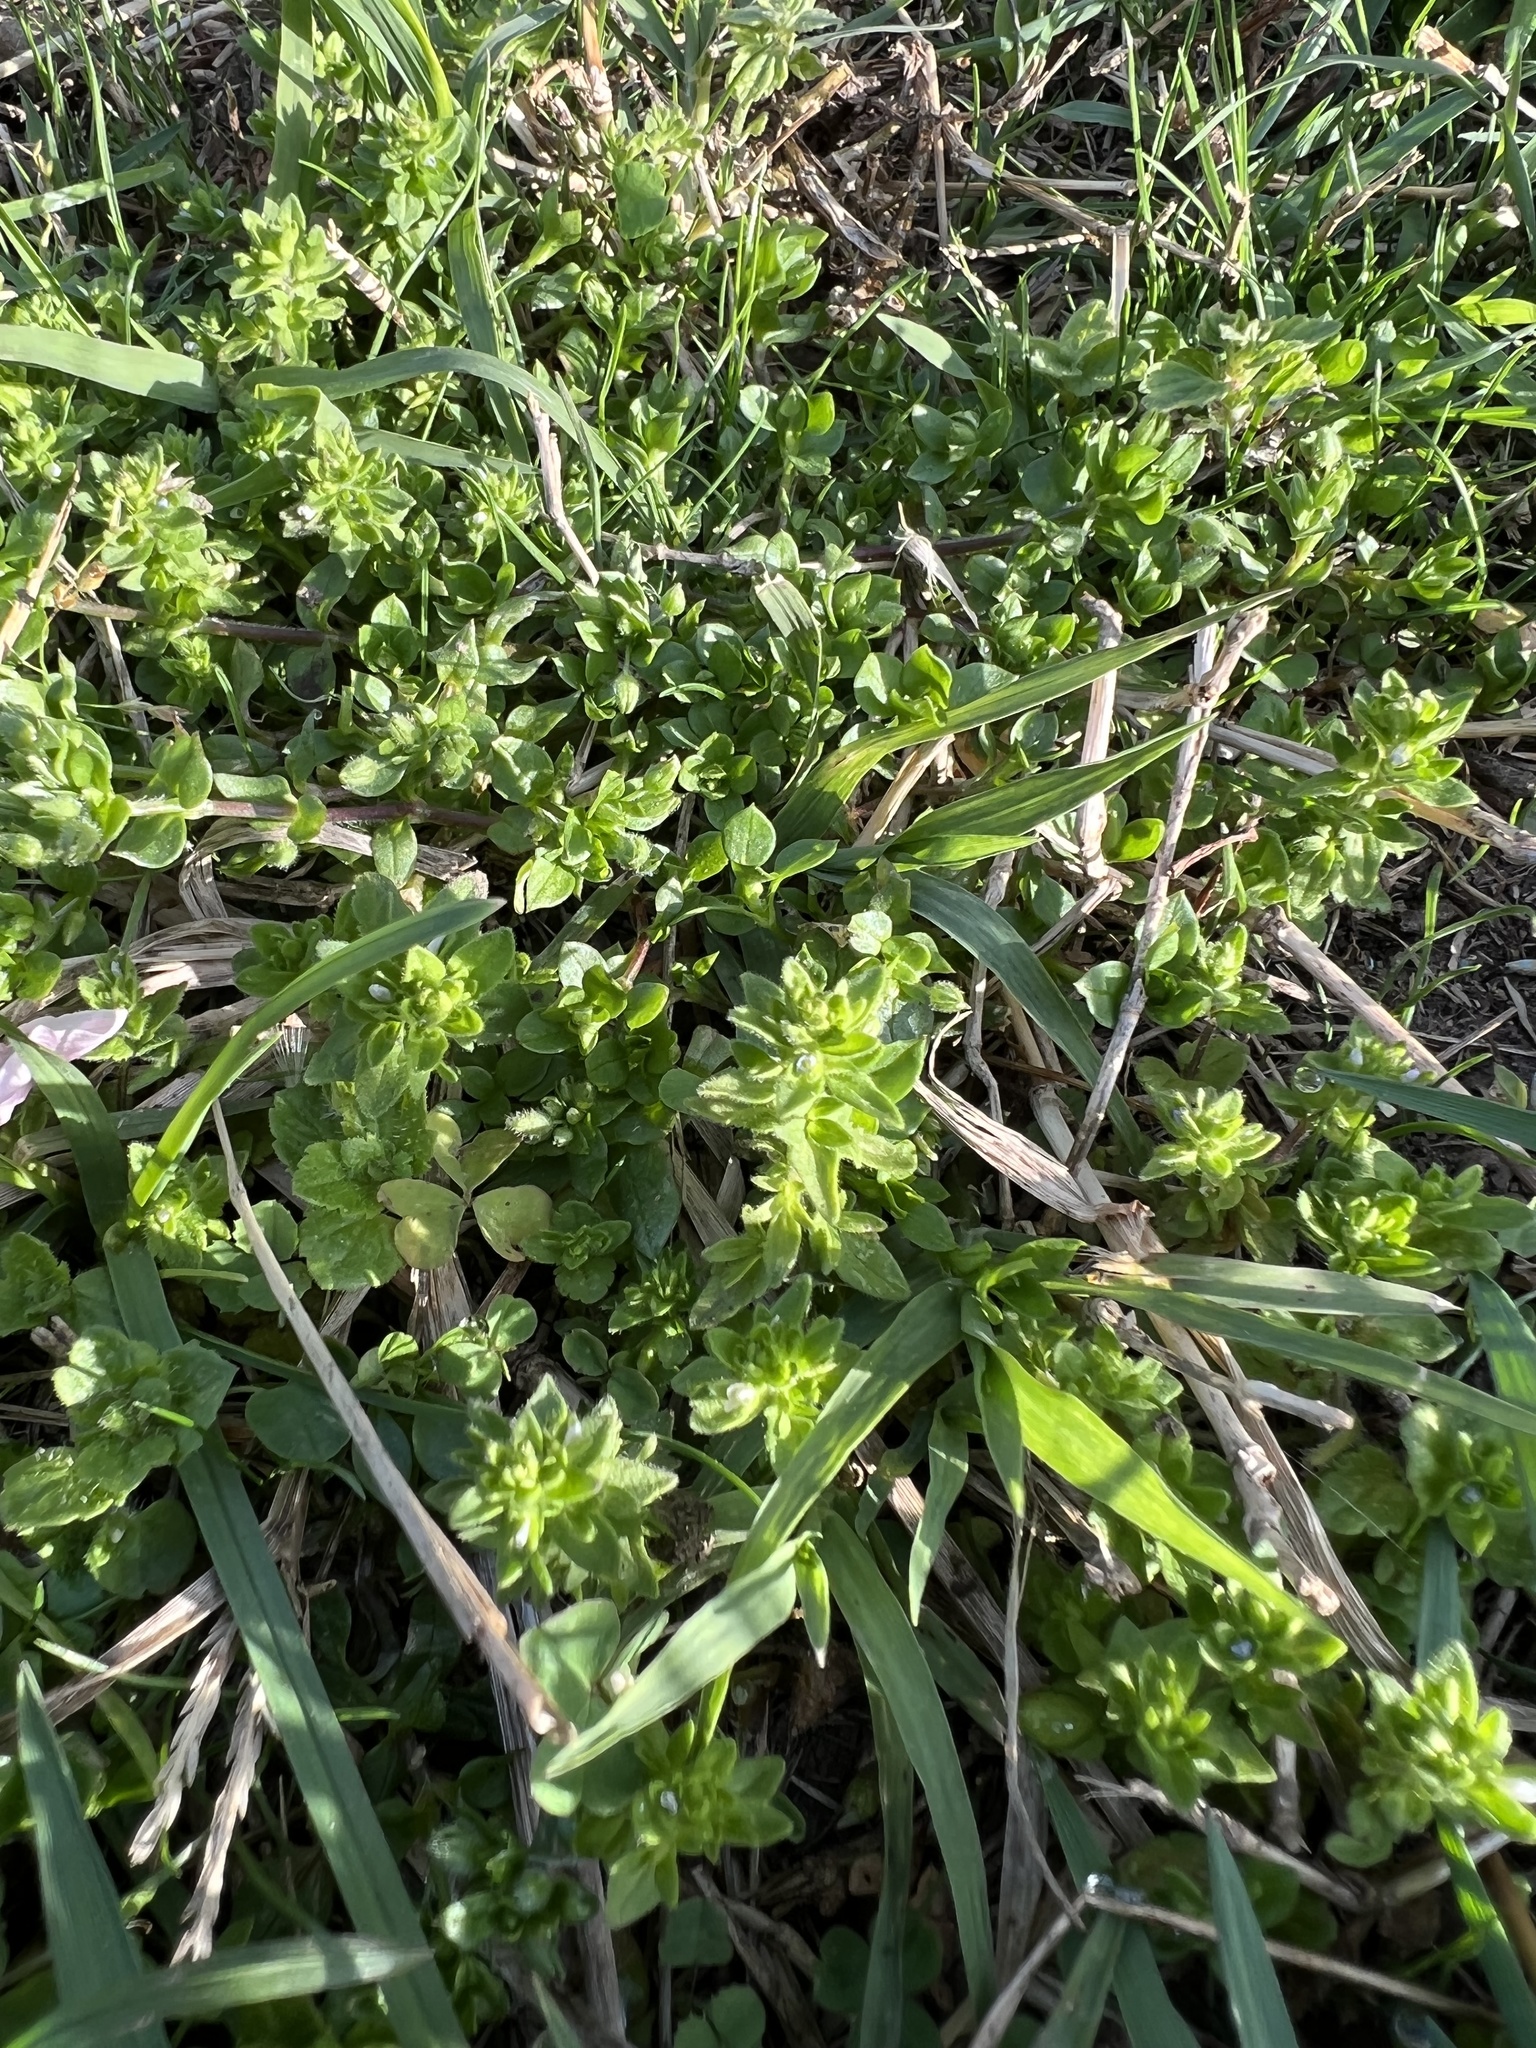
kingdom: Plantae
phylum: Tracheophyta
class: Magnoliopsida
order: Lamiales
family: Plantaginaceae
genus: Veronica
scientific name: Veronica arvensis
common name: Corn speedwell
